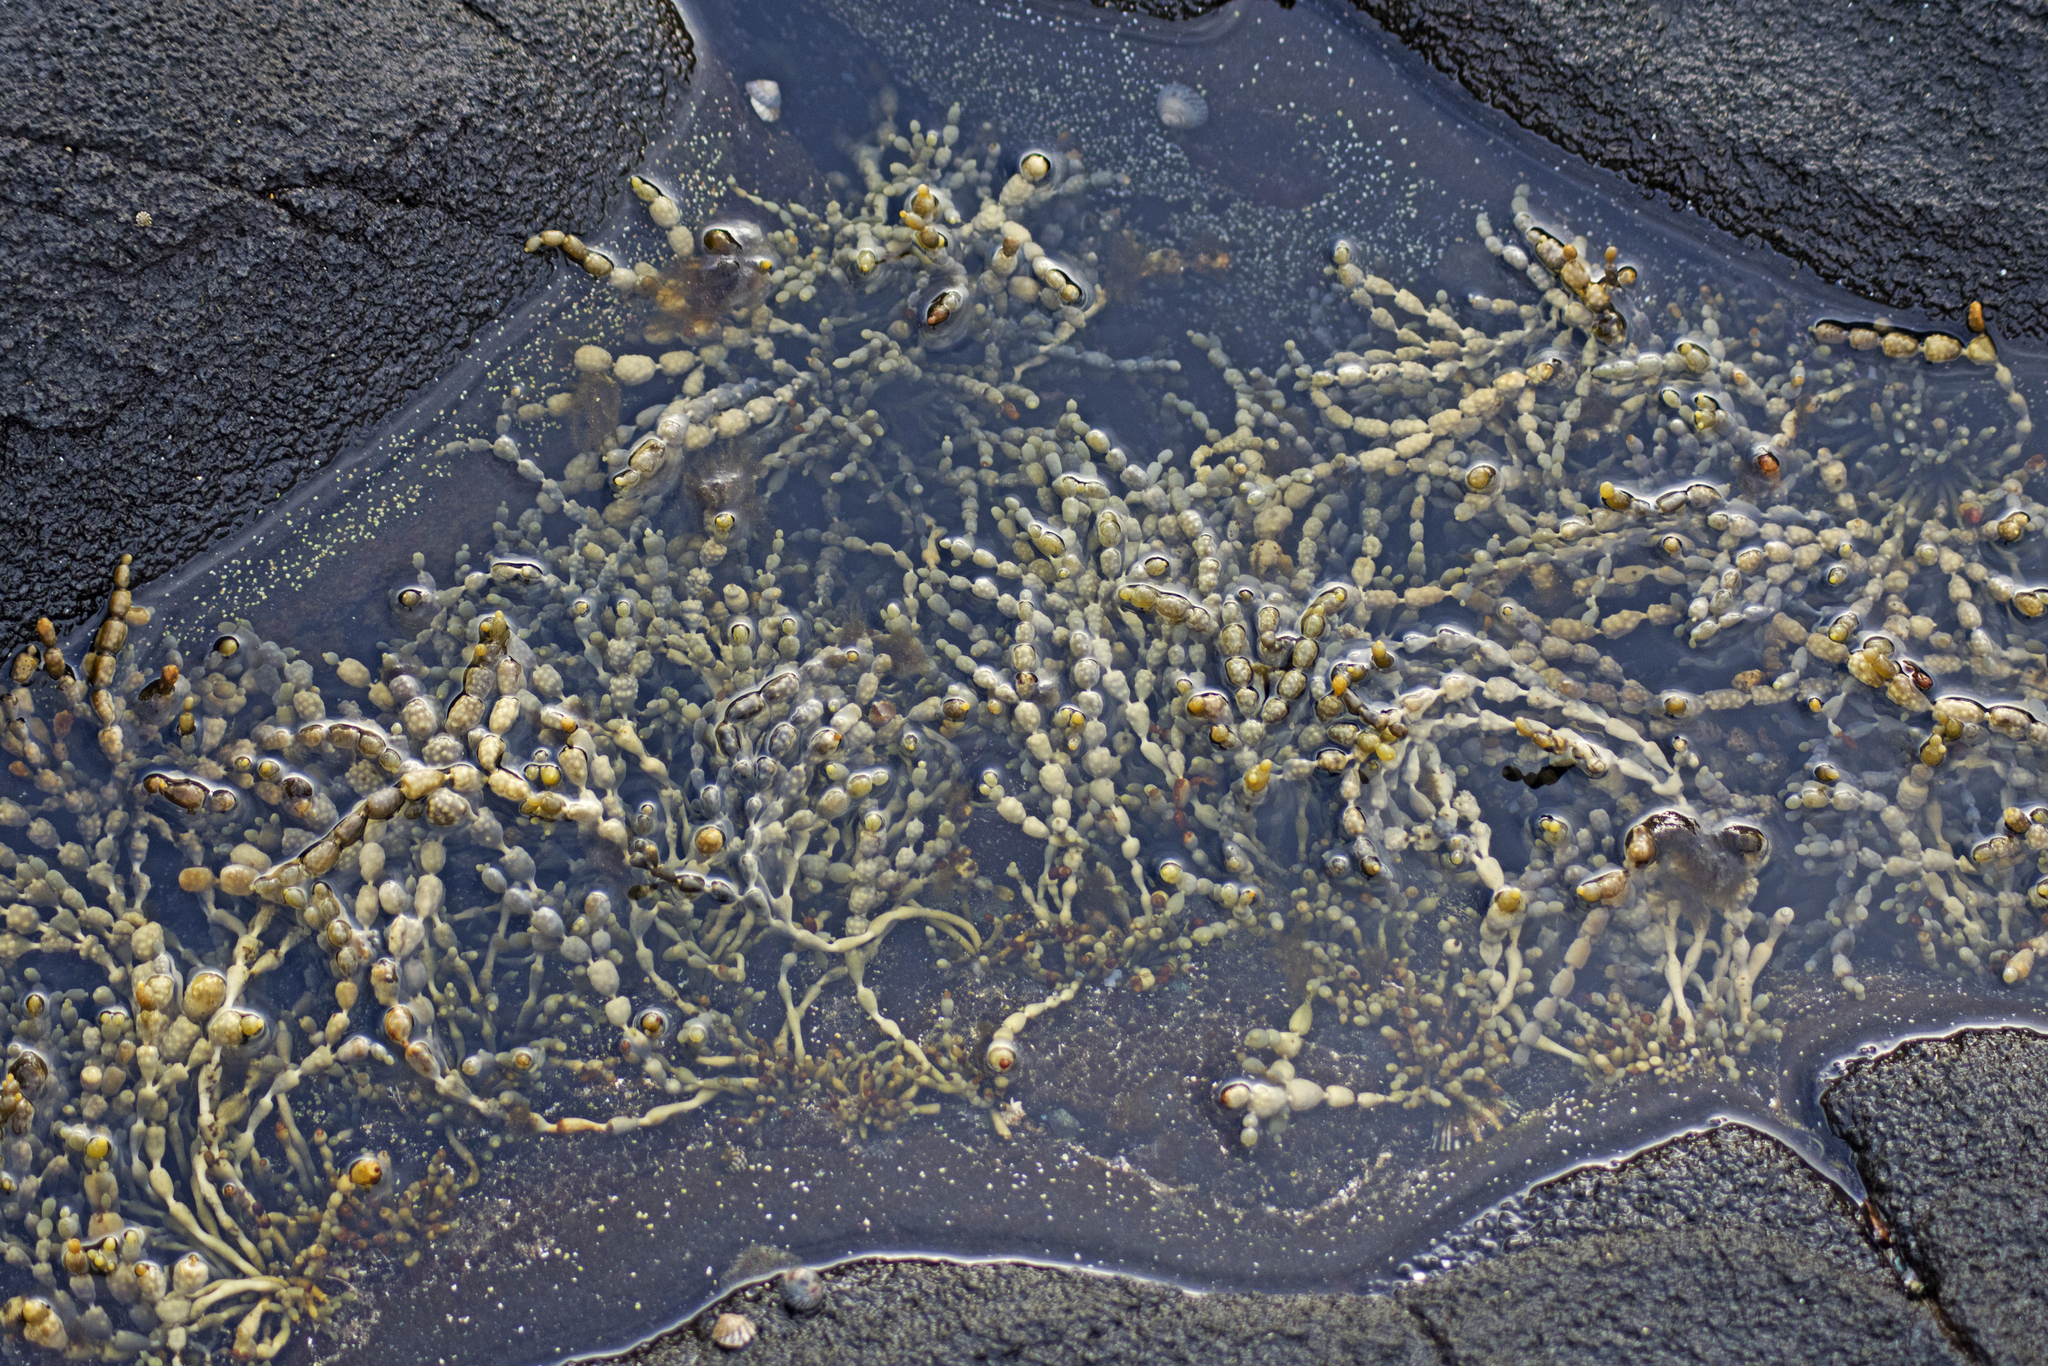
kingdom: Chromista
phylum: Ochrophyta
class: Phaeophyceae
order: Fucales
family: Hormosiraceae
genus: Hormosira
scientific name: Hormosira banksii
